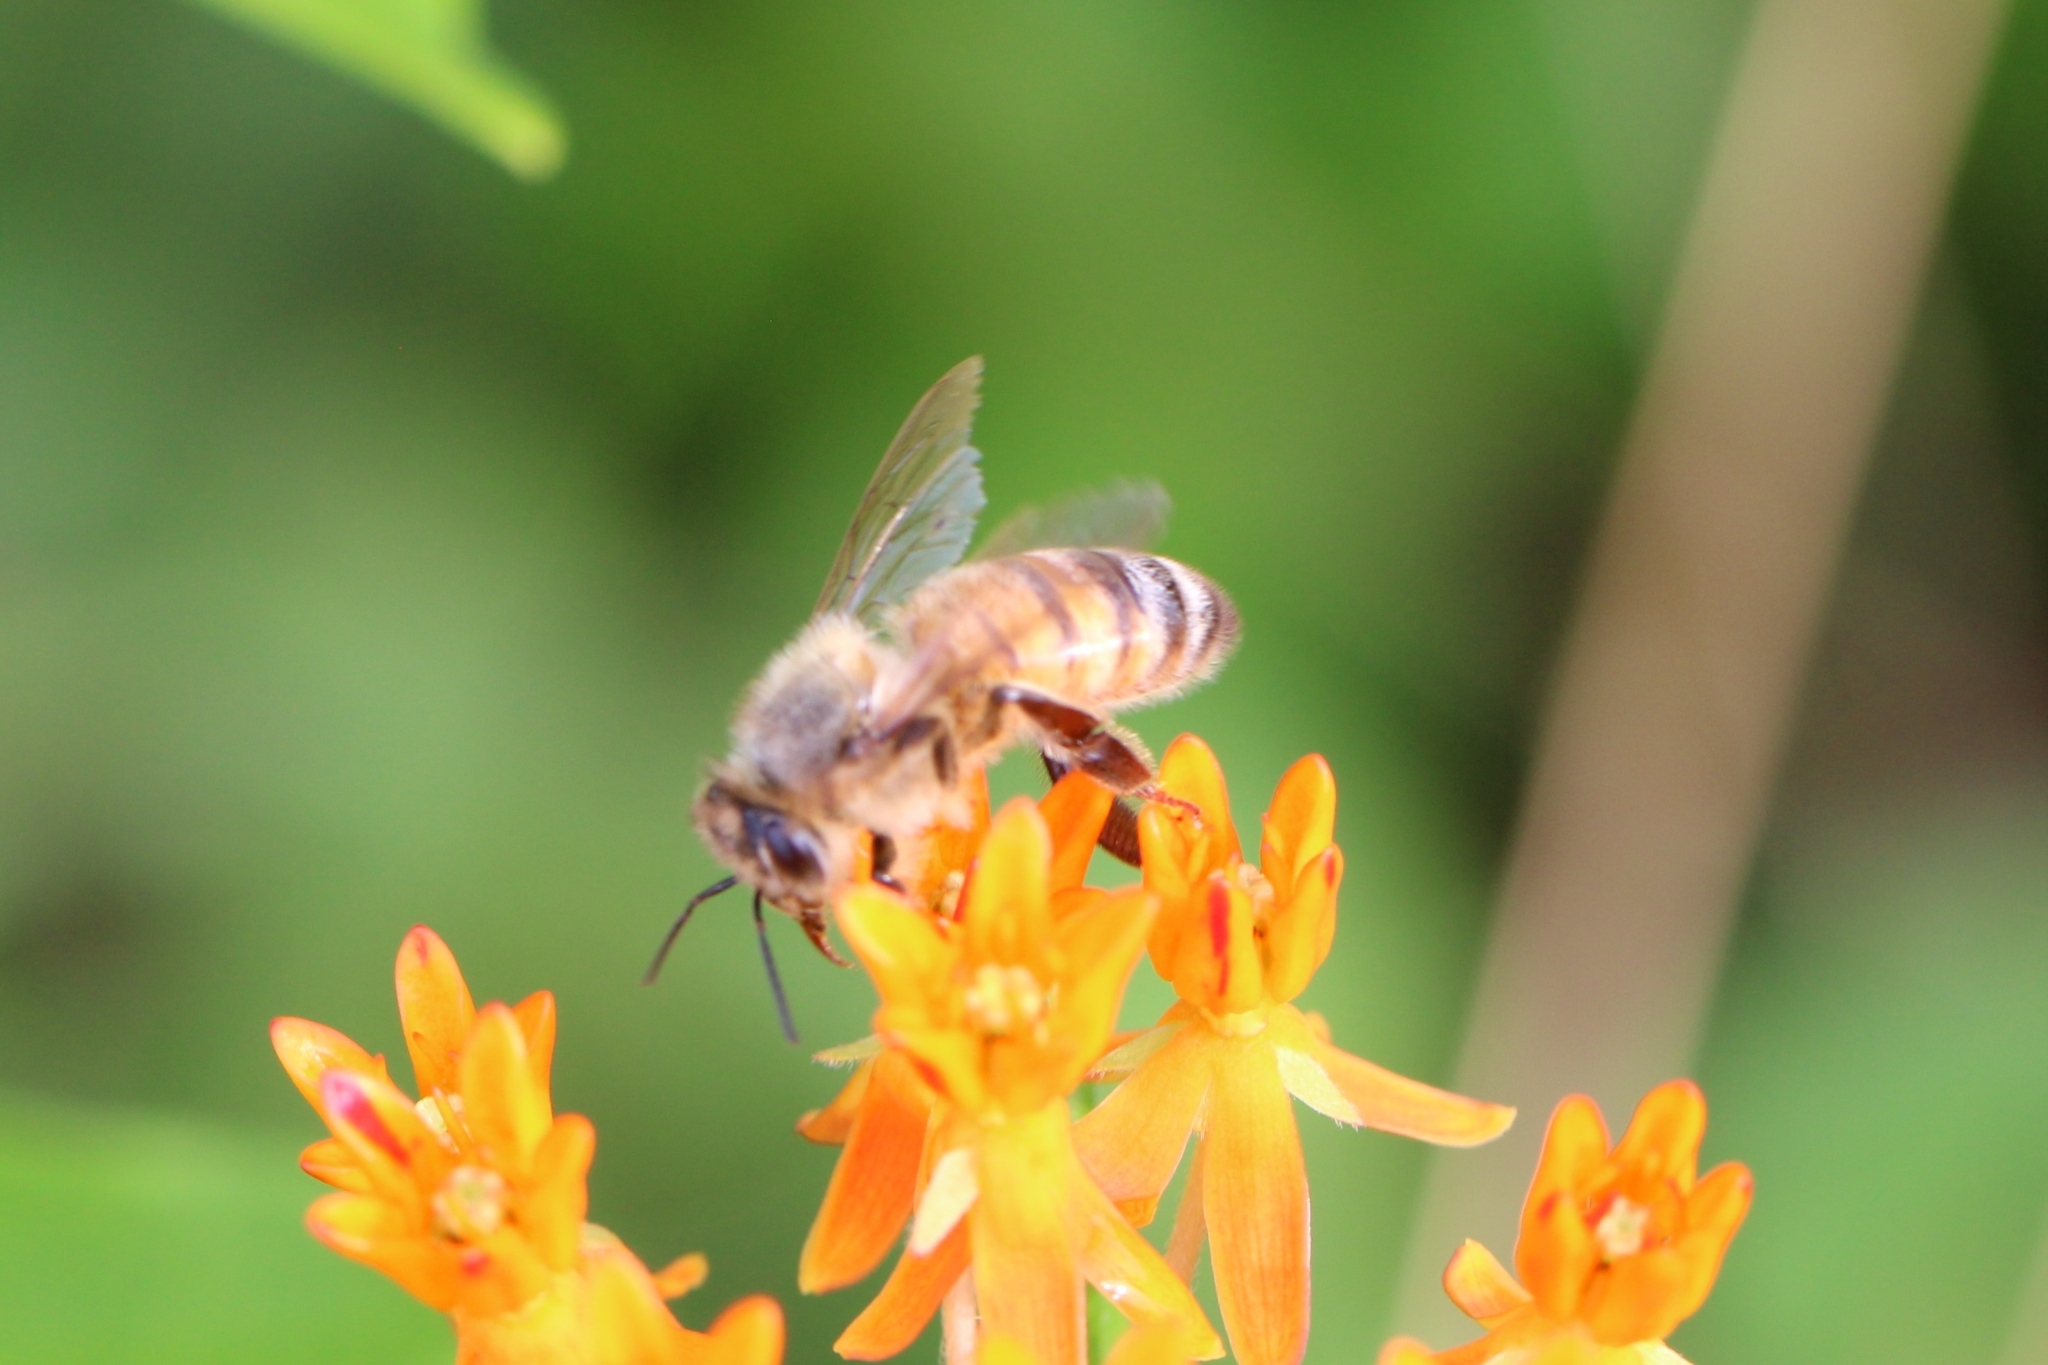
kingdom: Animalia
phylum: Arthropoda
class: Insecta
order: Hymenoptera
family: Apidae
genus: Apis
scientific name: Apis mellifera
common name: Honey bee
